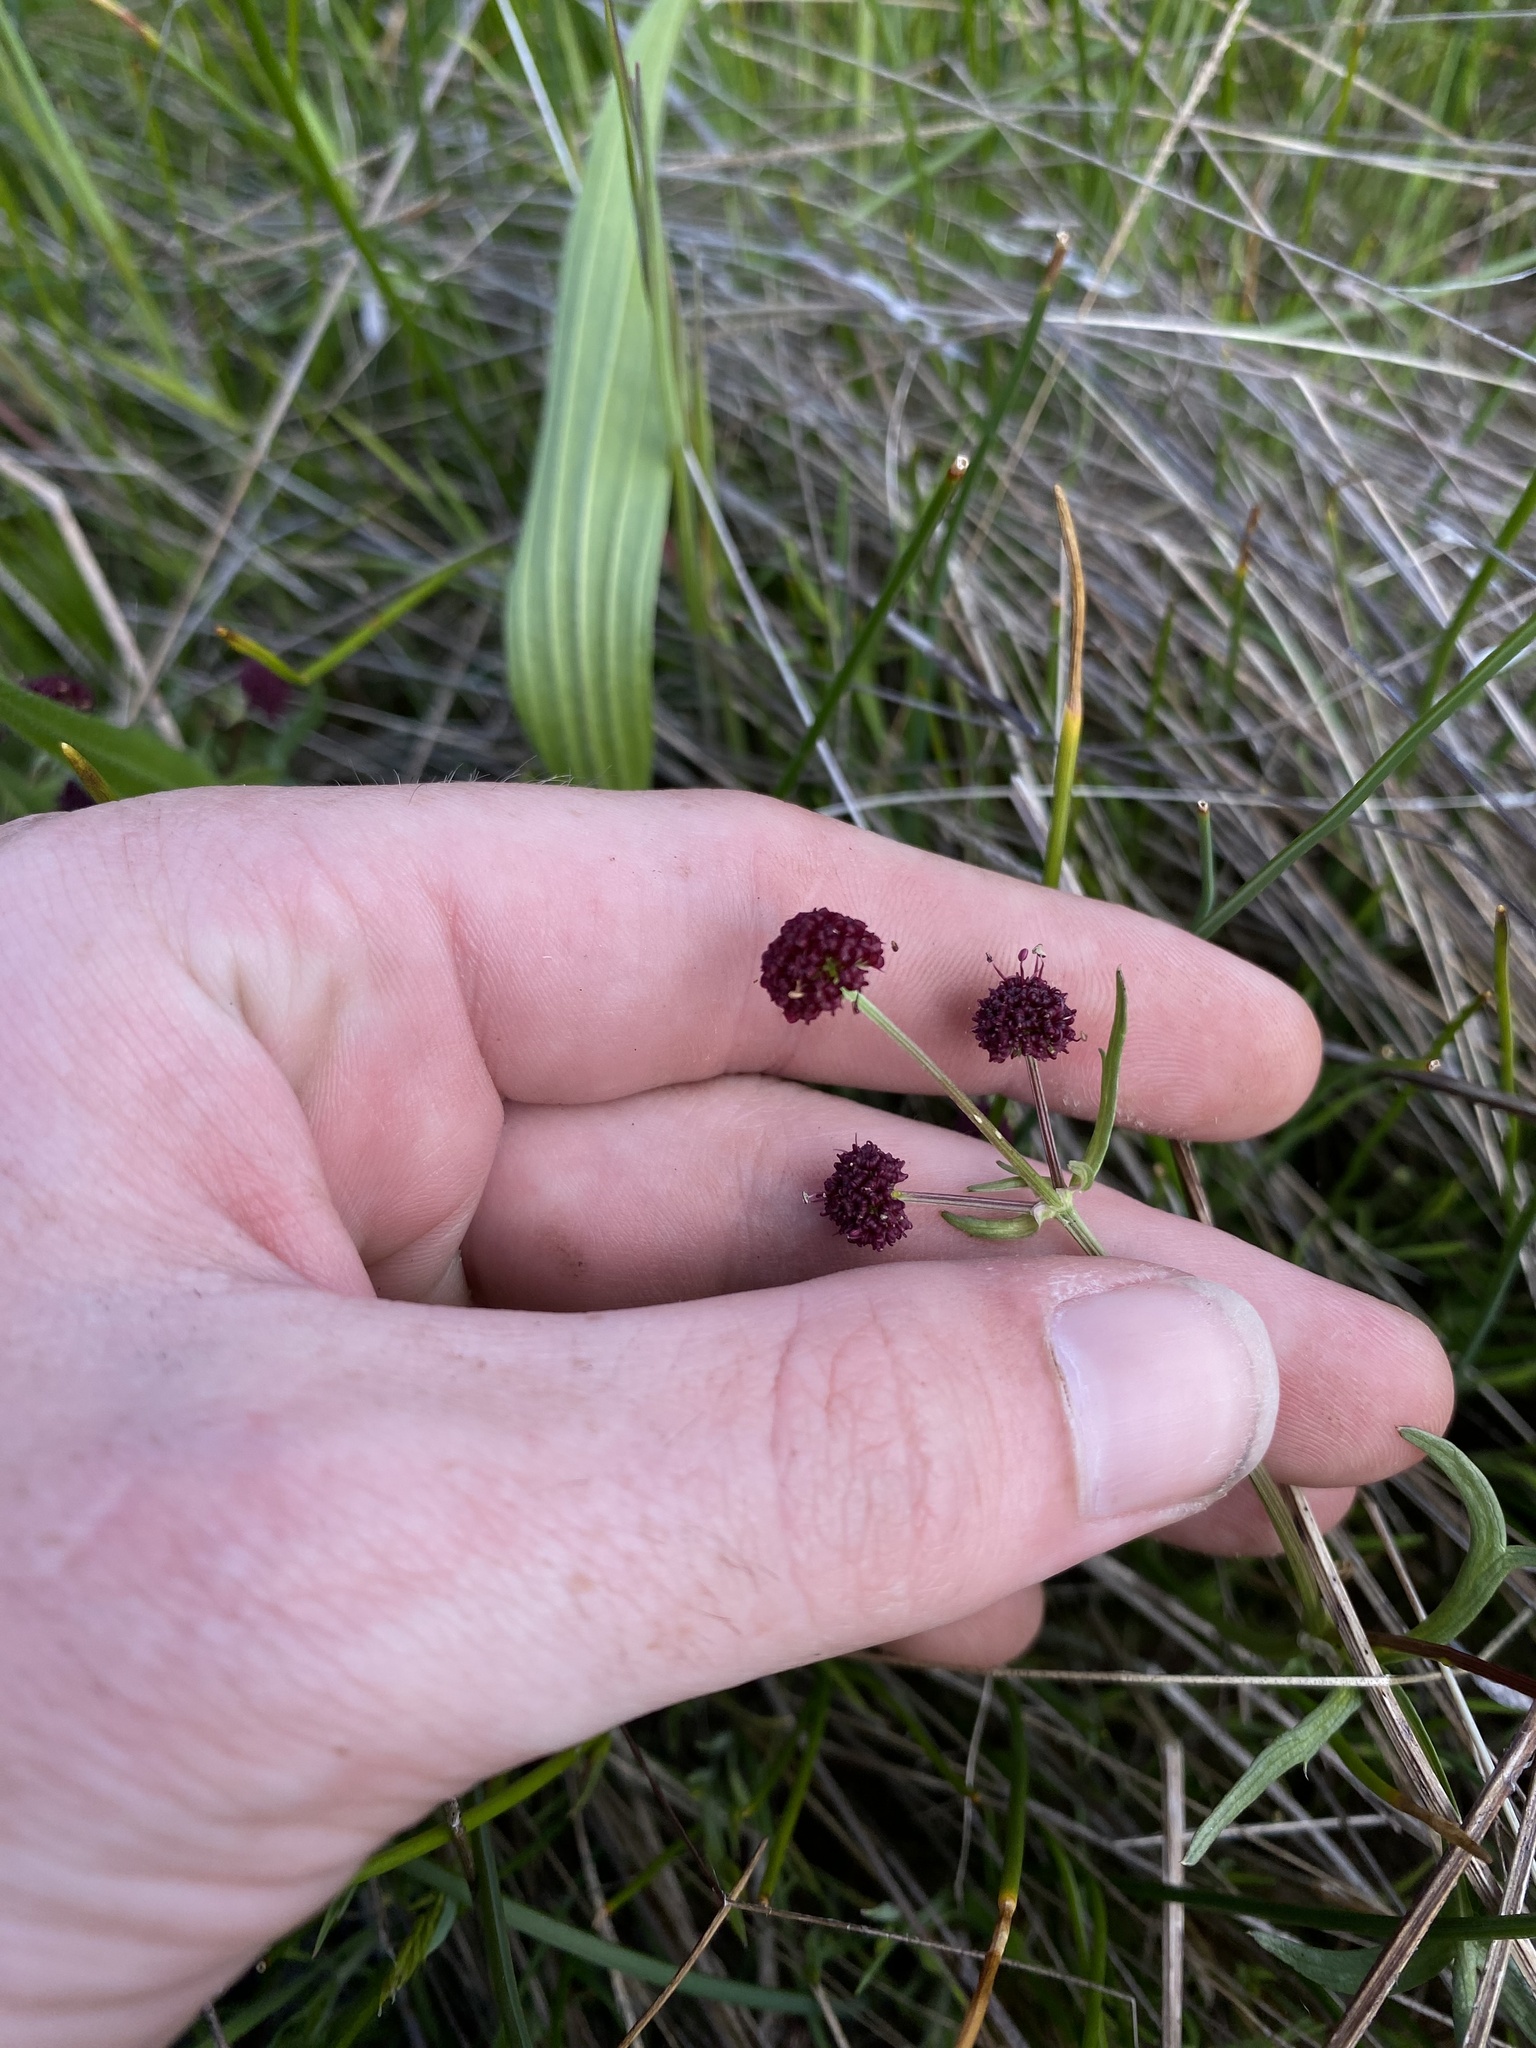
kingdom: Plantae
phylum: Tracheophyta
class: Magnoliopsida
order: Apiales
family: Apiaceae
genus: Sanicula
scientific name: Sanicula bipinnatifida
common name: Shoe-buttons
